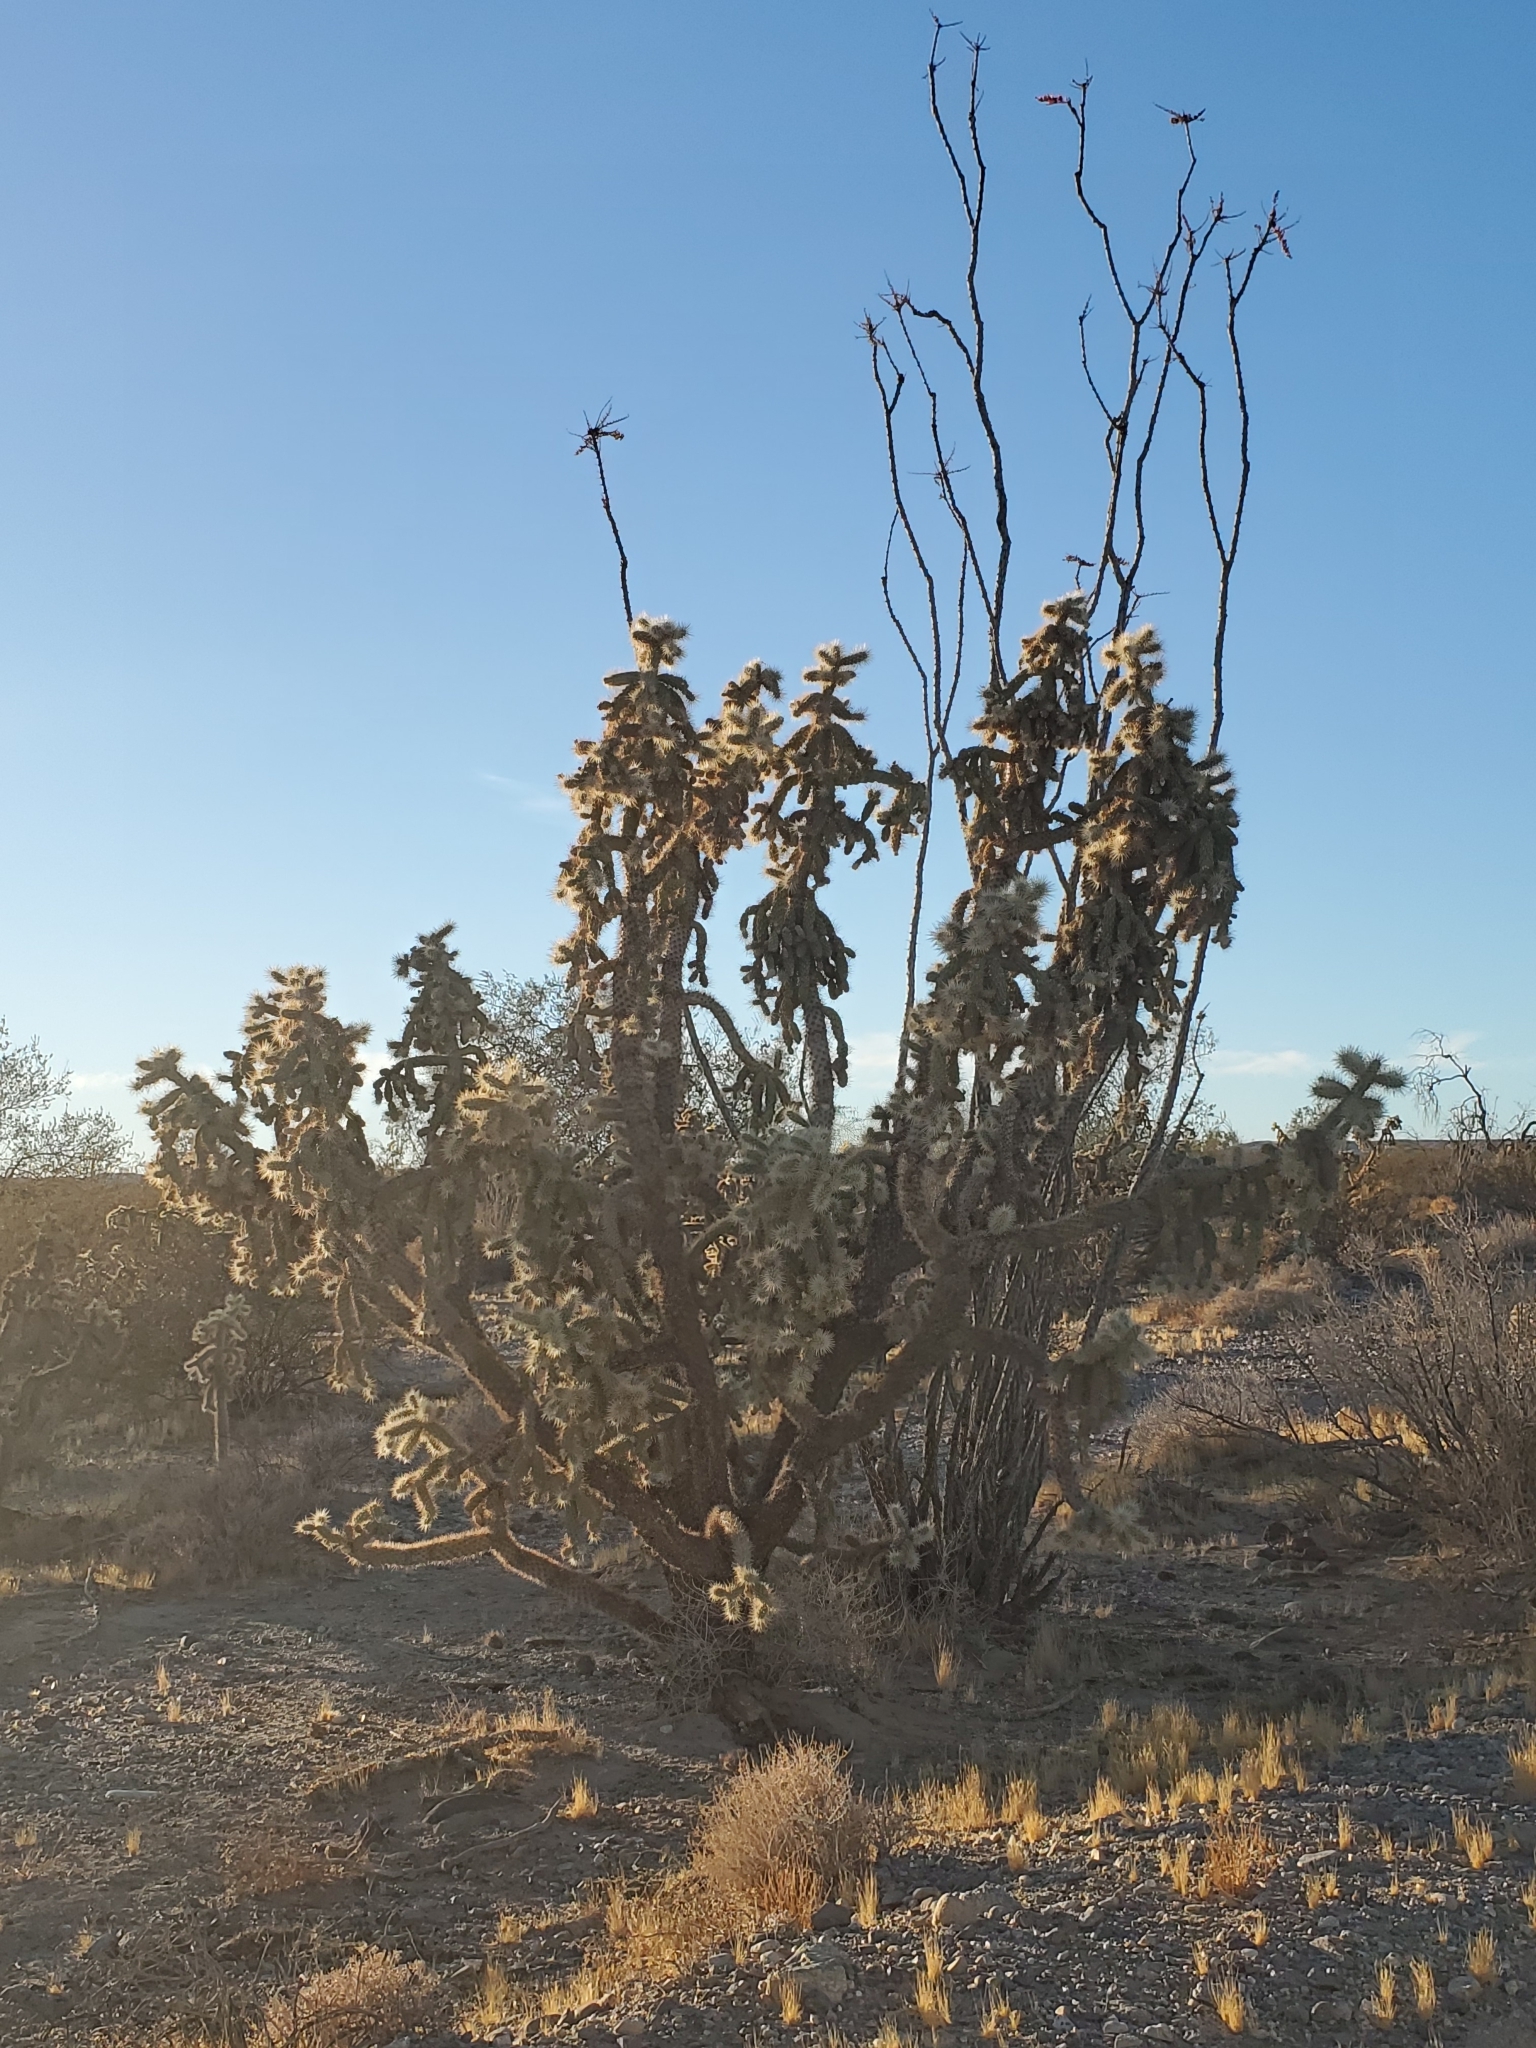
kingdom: Plantae
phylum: Tracheophyta
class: Magnoliopsida
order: Caryophyllales
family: Cactaceae
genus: Cylindropuntia
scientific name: Cylindropuntia munzii
